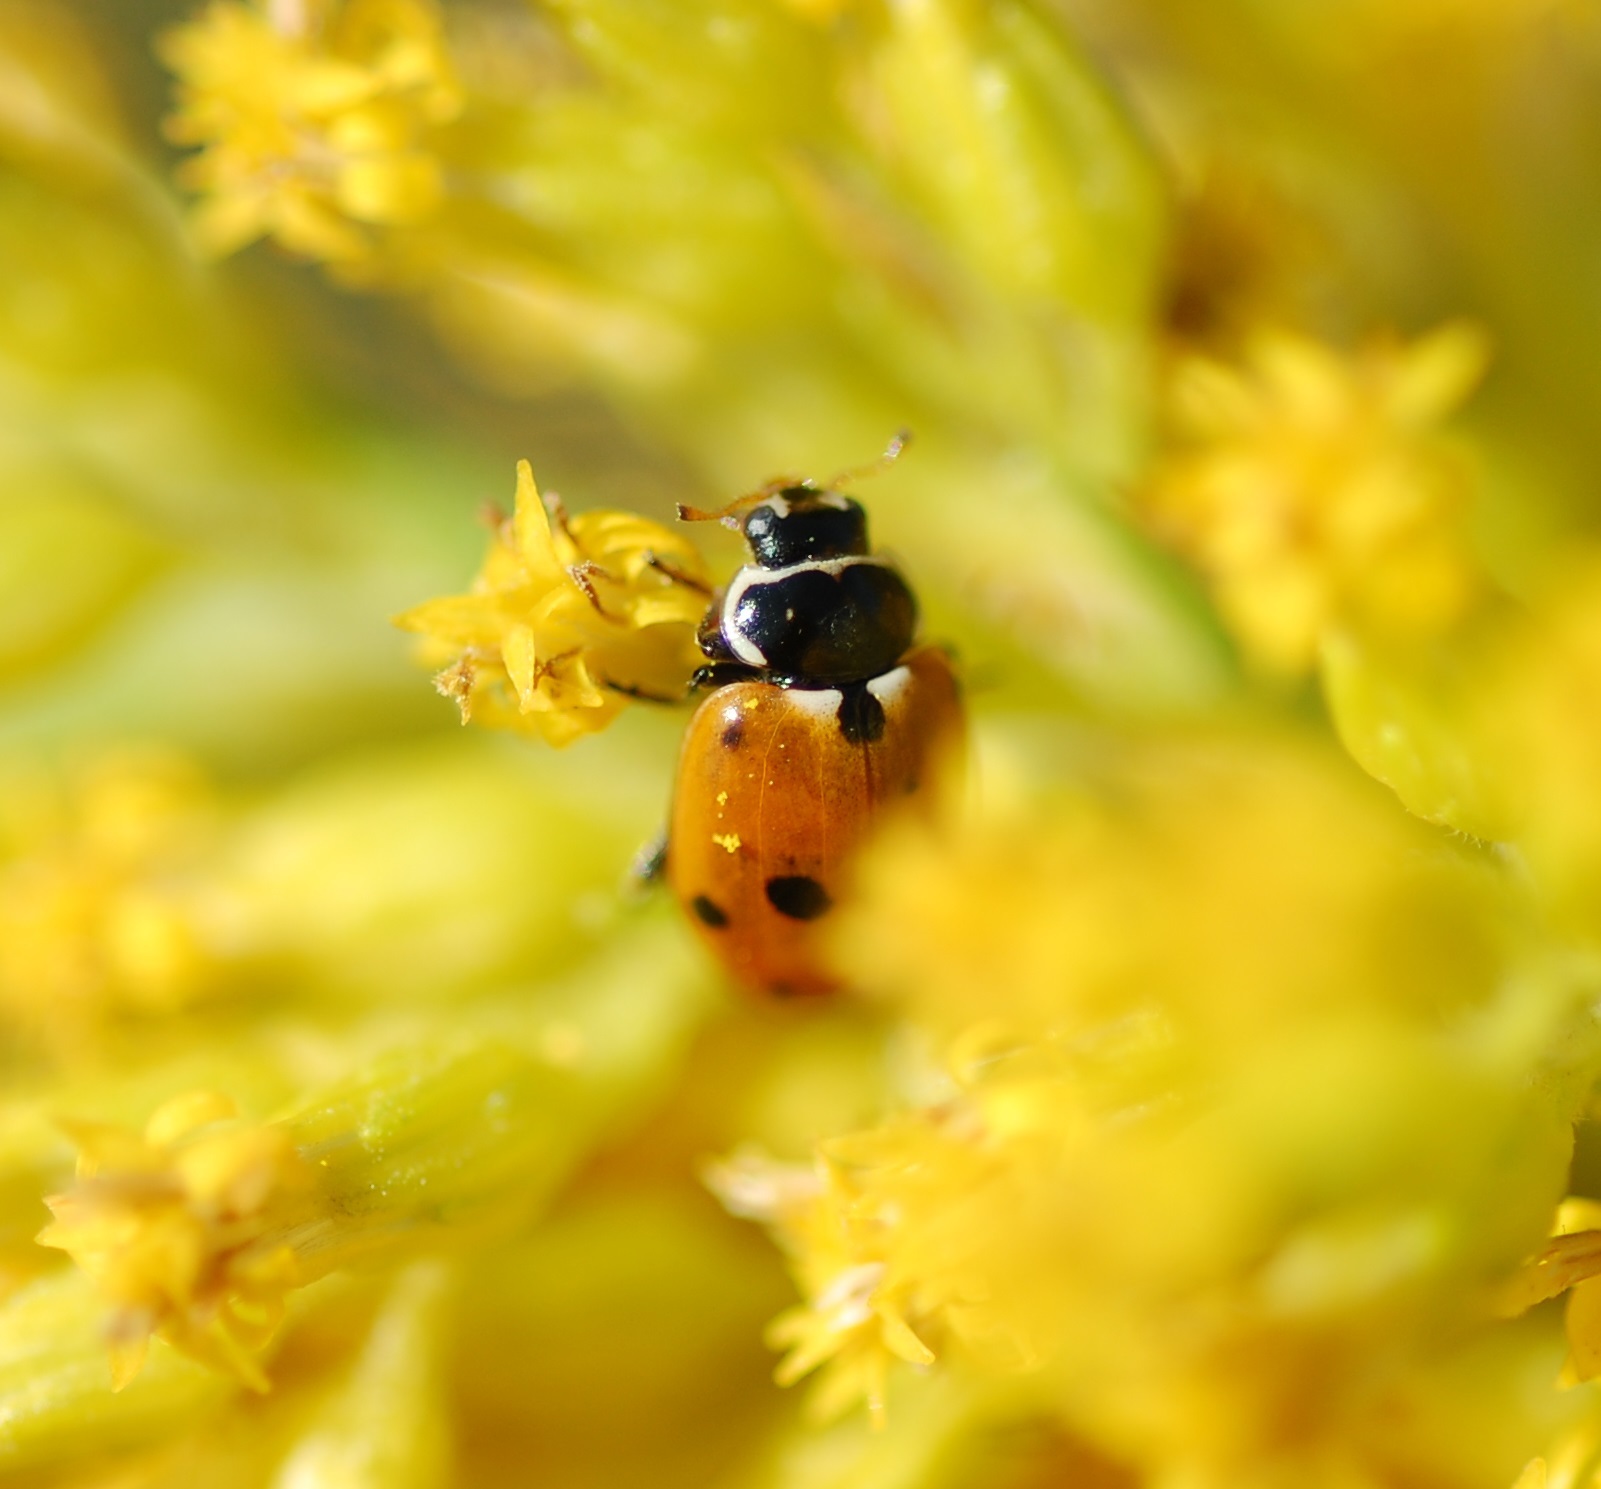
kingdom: Animalia
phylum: Arthropoda
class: Insecta
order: Coleoptera
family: Coccinellidae
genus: Hippodamia
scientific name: Hippodamia variegata
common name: Ladybird beetle
